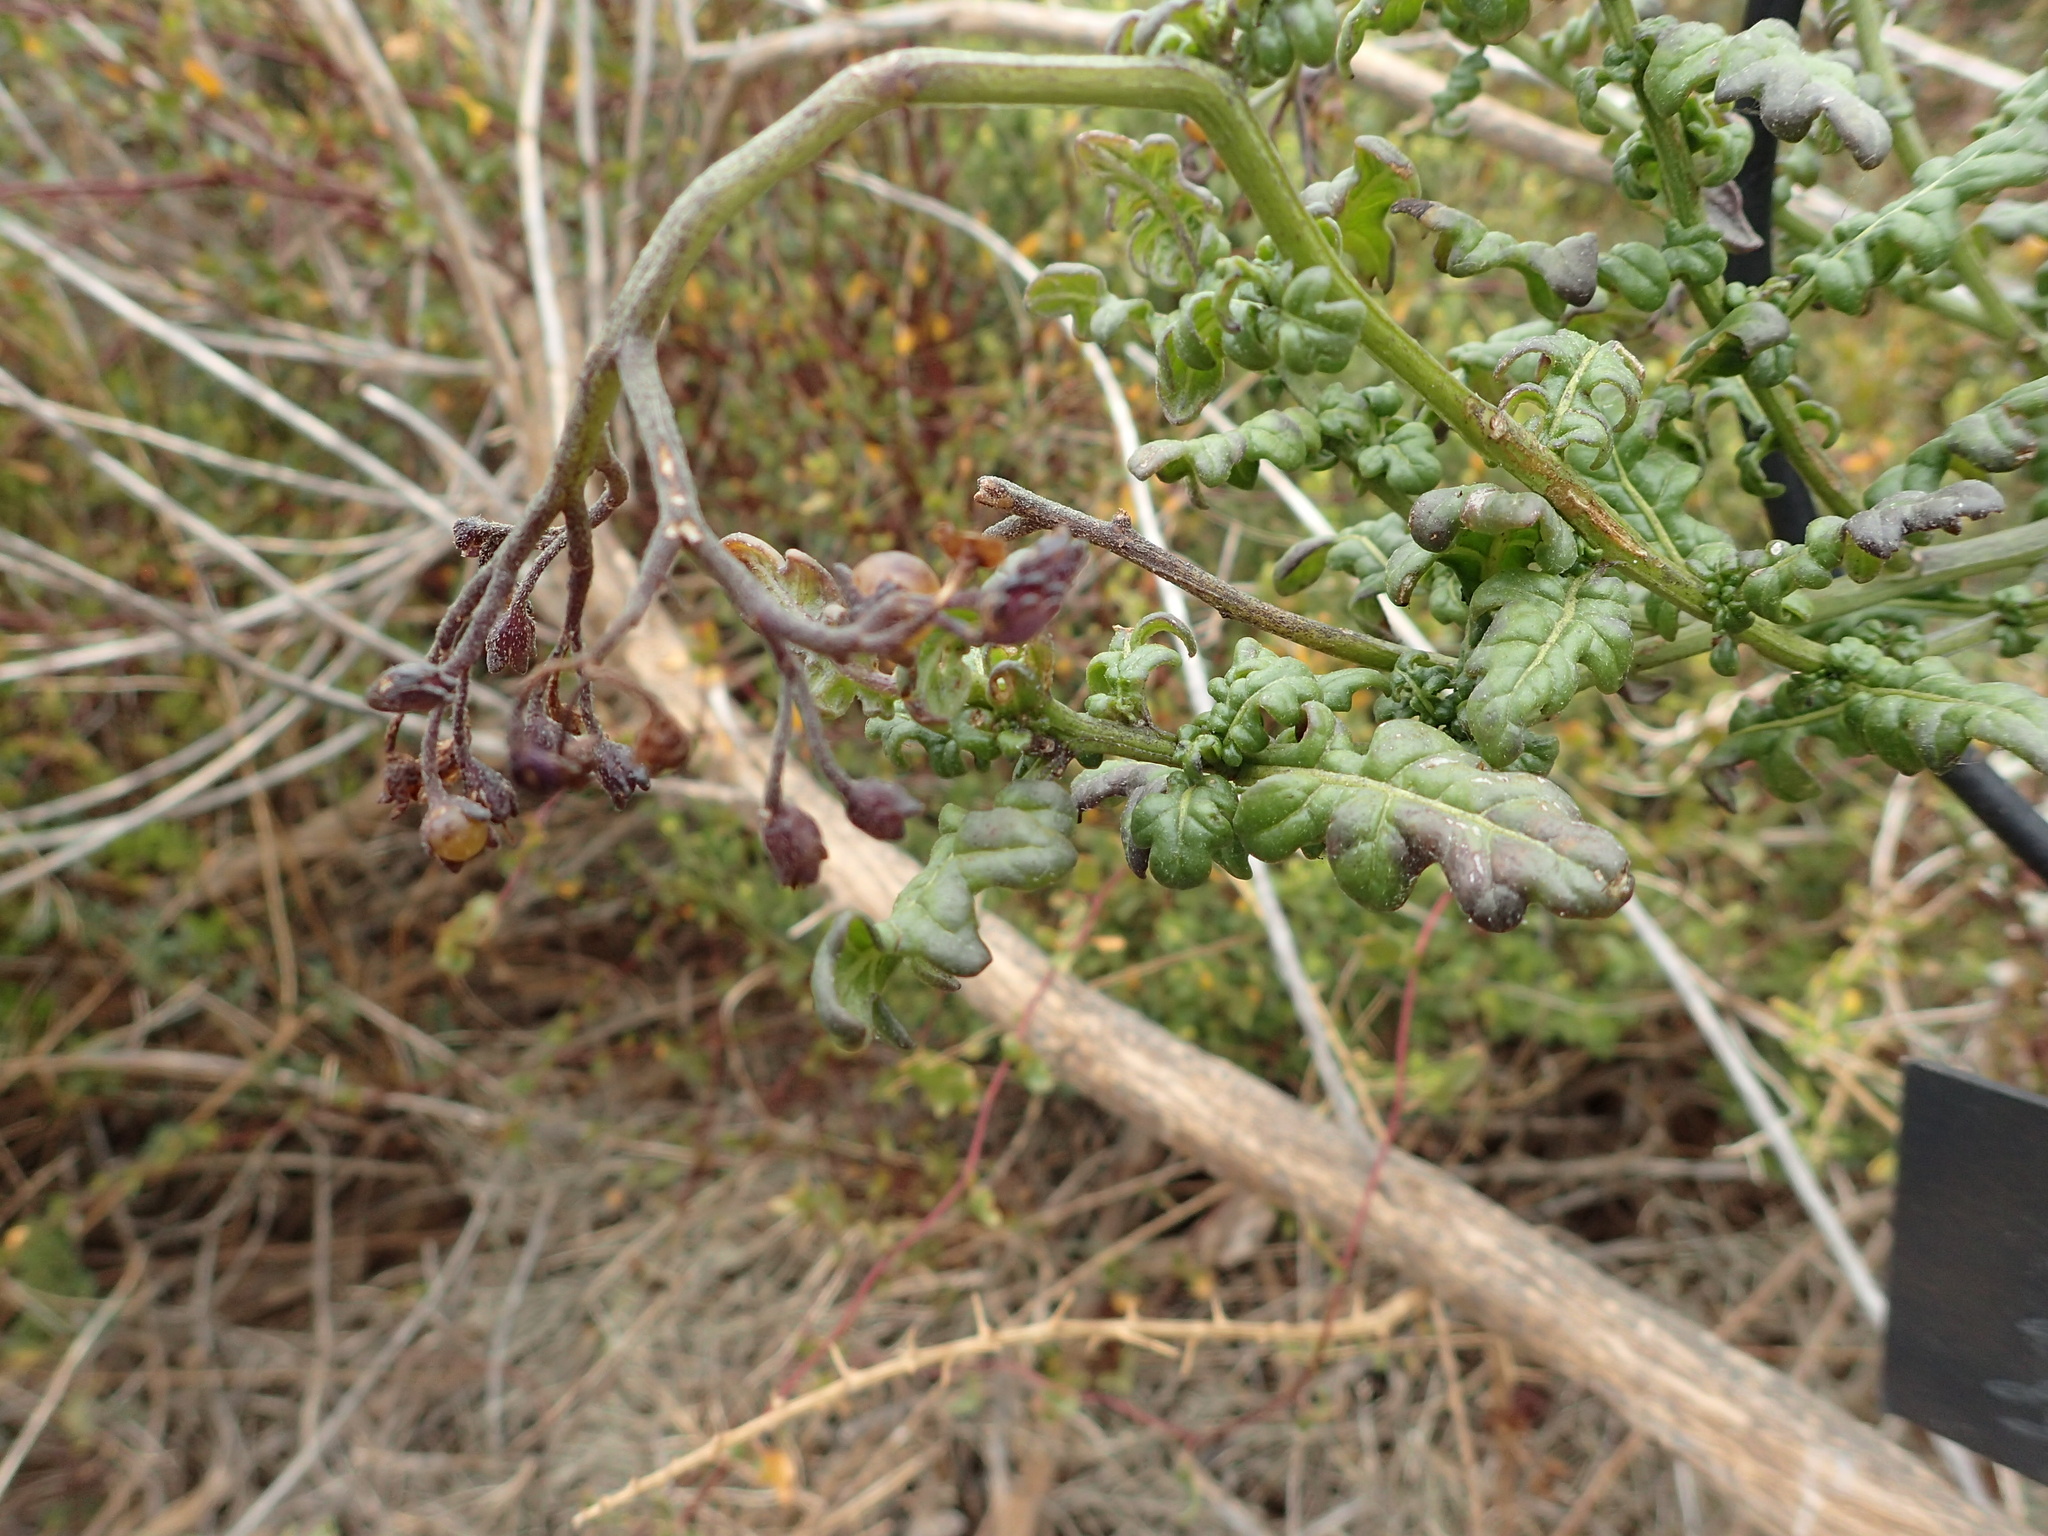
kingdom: Plantae
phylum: Tracheophyta
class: Magnoliopsida
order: Solanales
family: Solanaceae
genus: Solanum
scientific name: Solanum pinnatum
